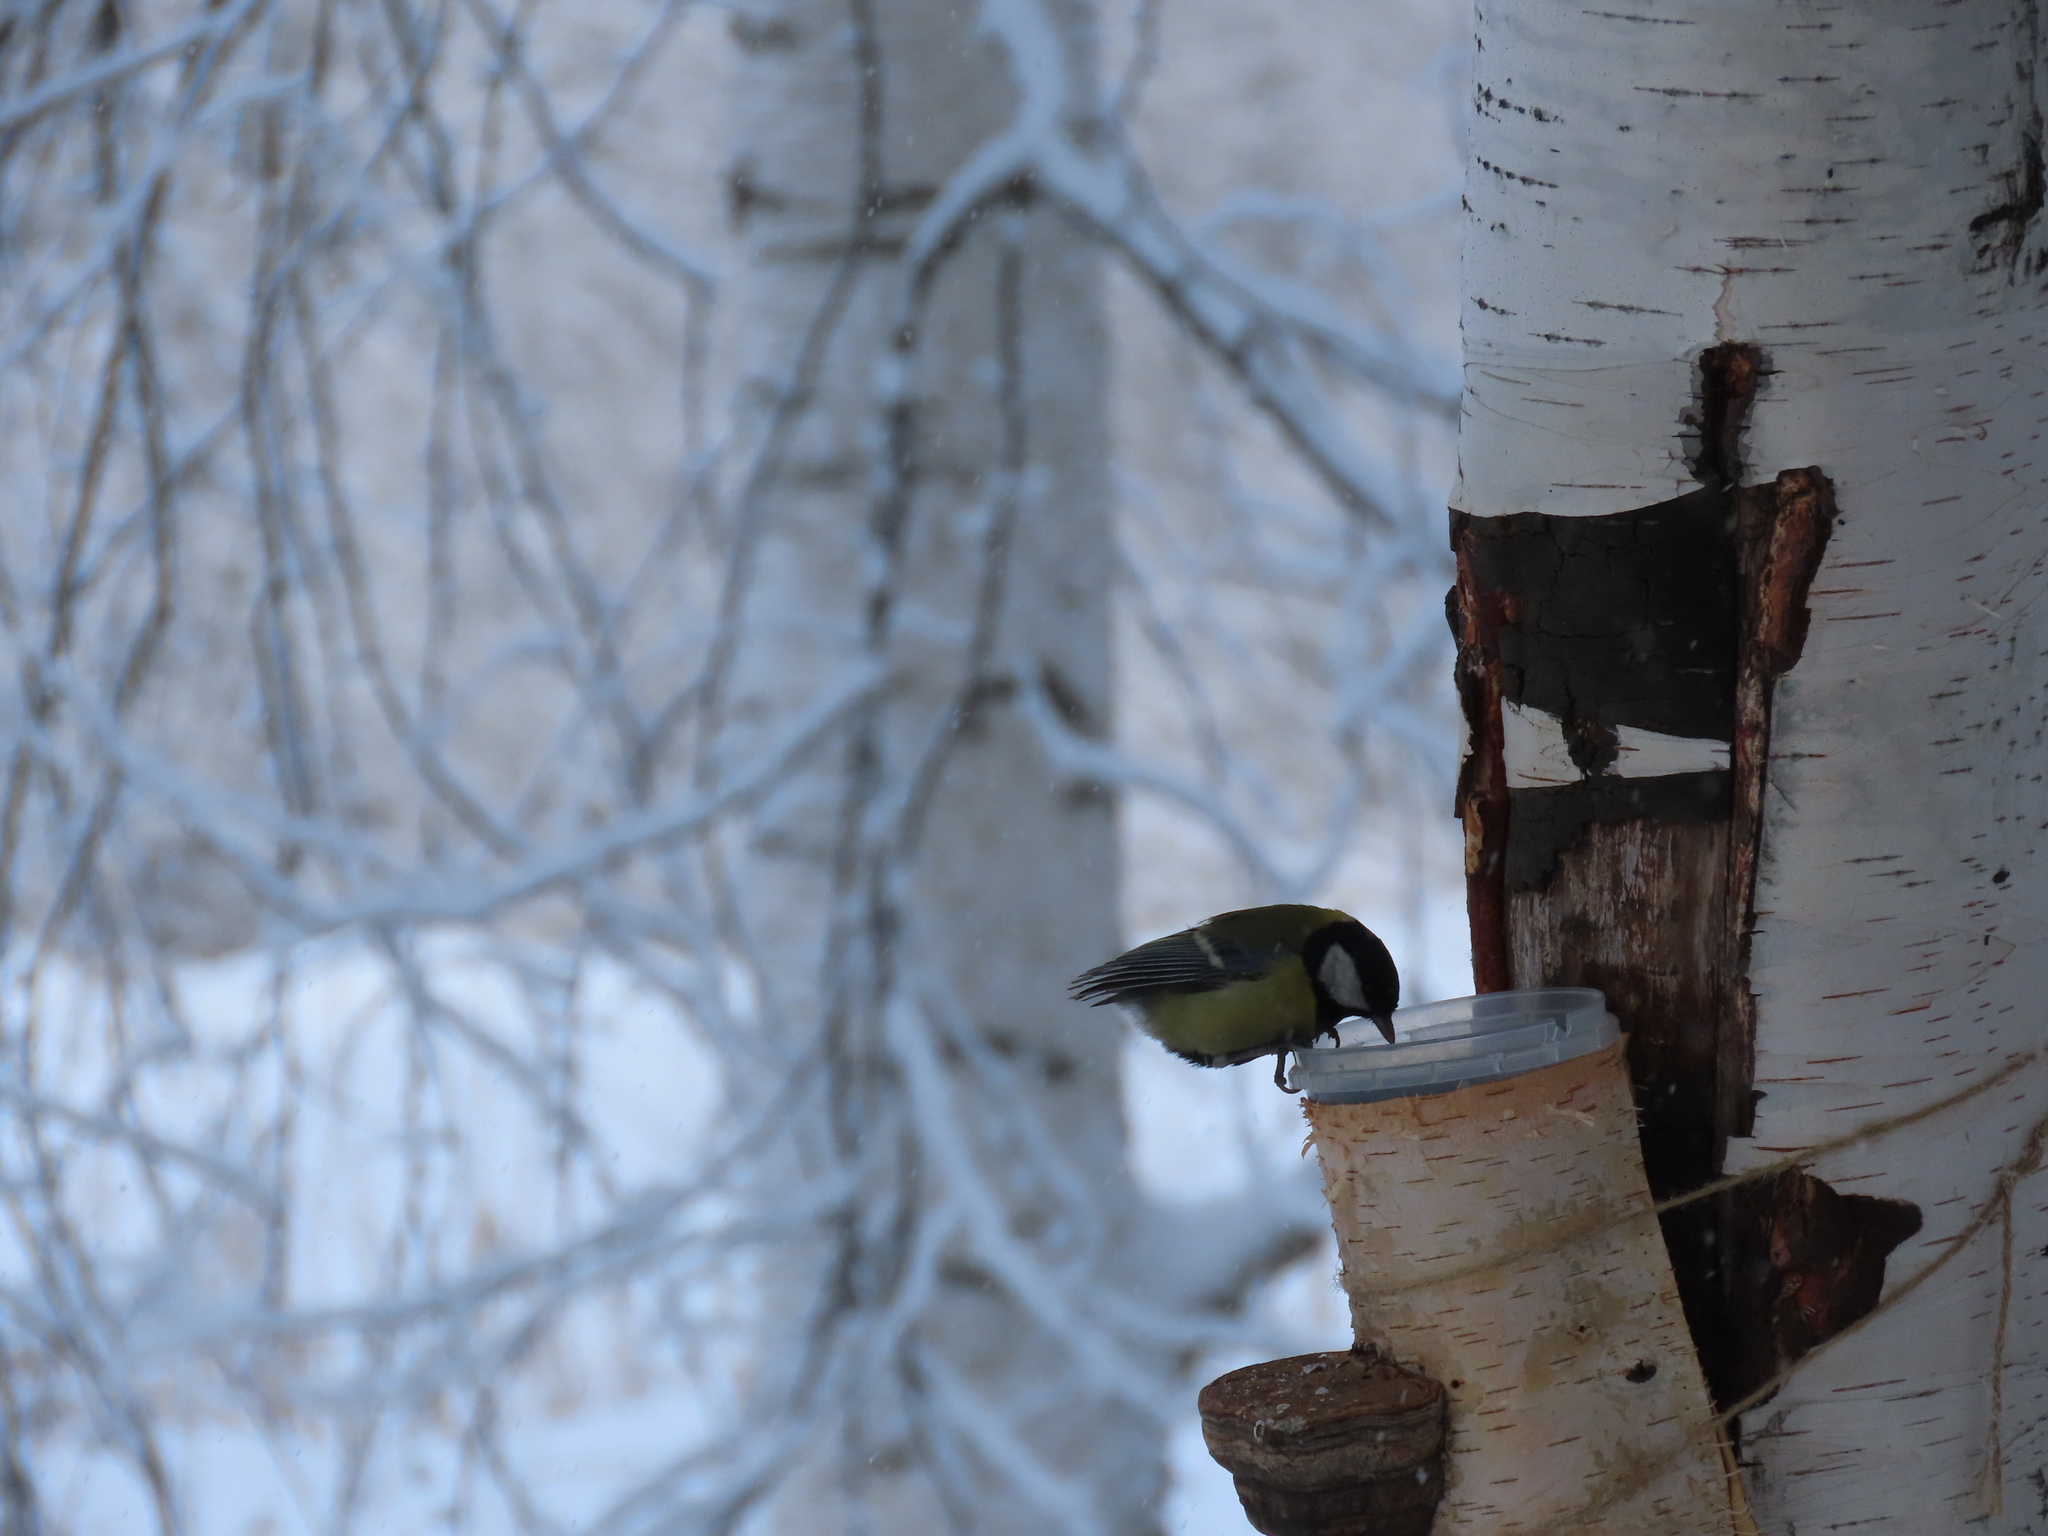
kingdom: Animalia
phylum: Chordata
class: Aves
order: Passeriformes
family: Paridae
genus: Parus
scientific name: Parus major
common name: Great tit
